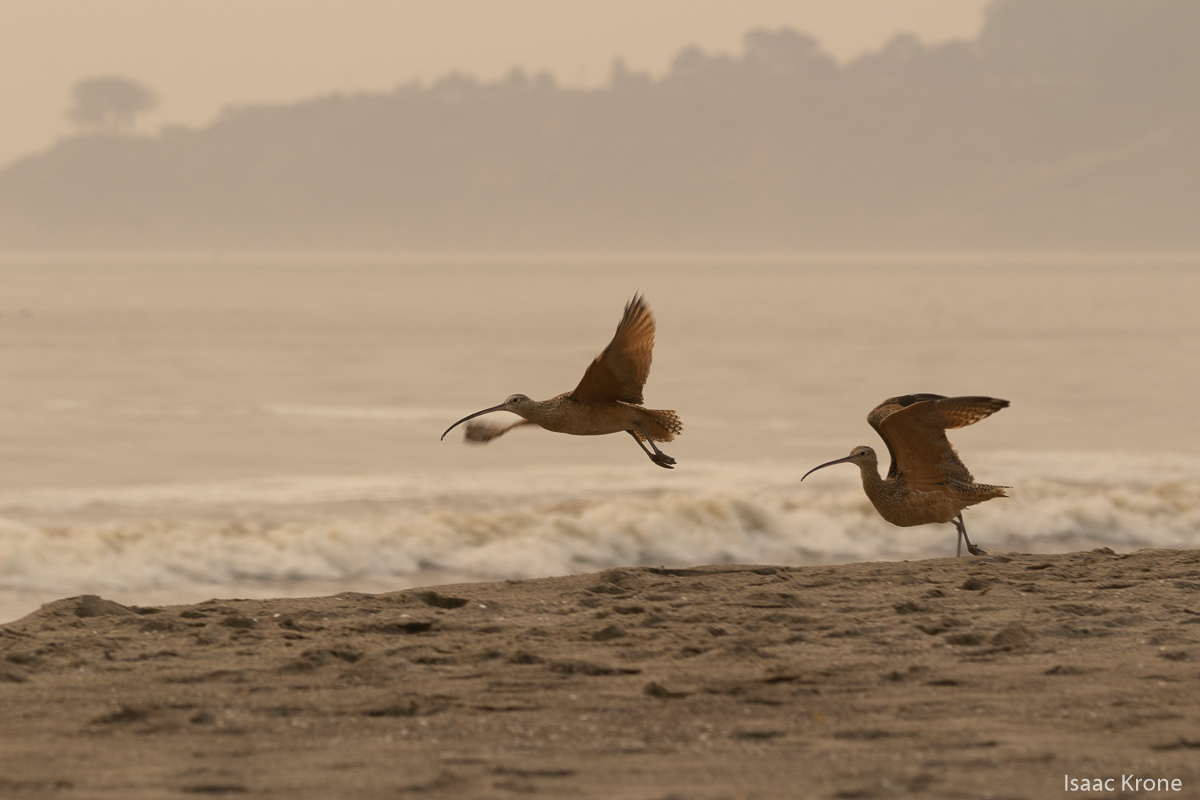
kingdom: Animalia
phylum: Chordata
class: Aves
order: Charadriiformes
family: Scolopacidae
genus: Numenius
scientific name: Numenius americanus
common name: Long-billed curlew
